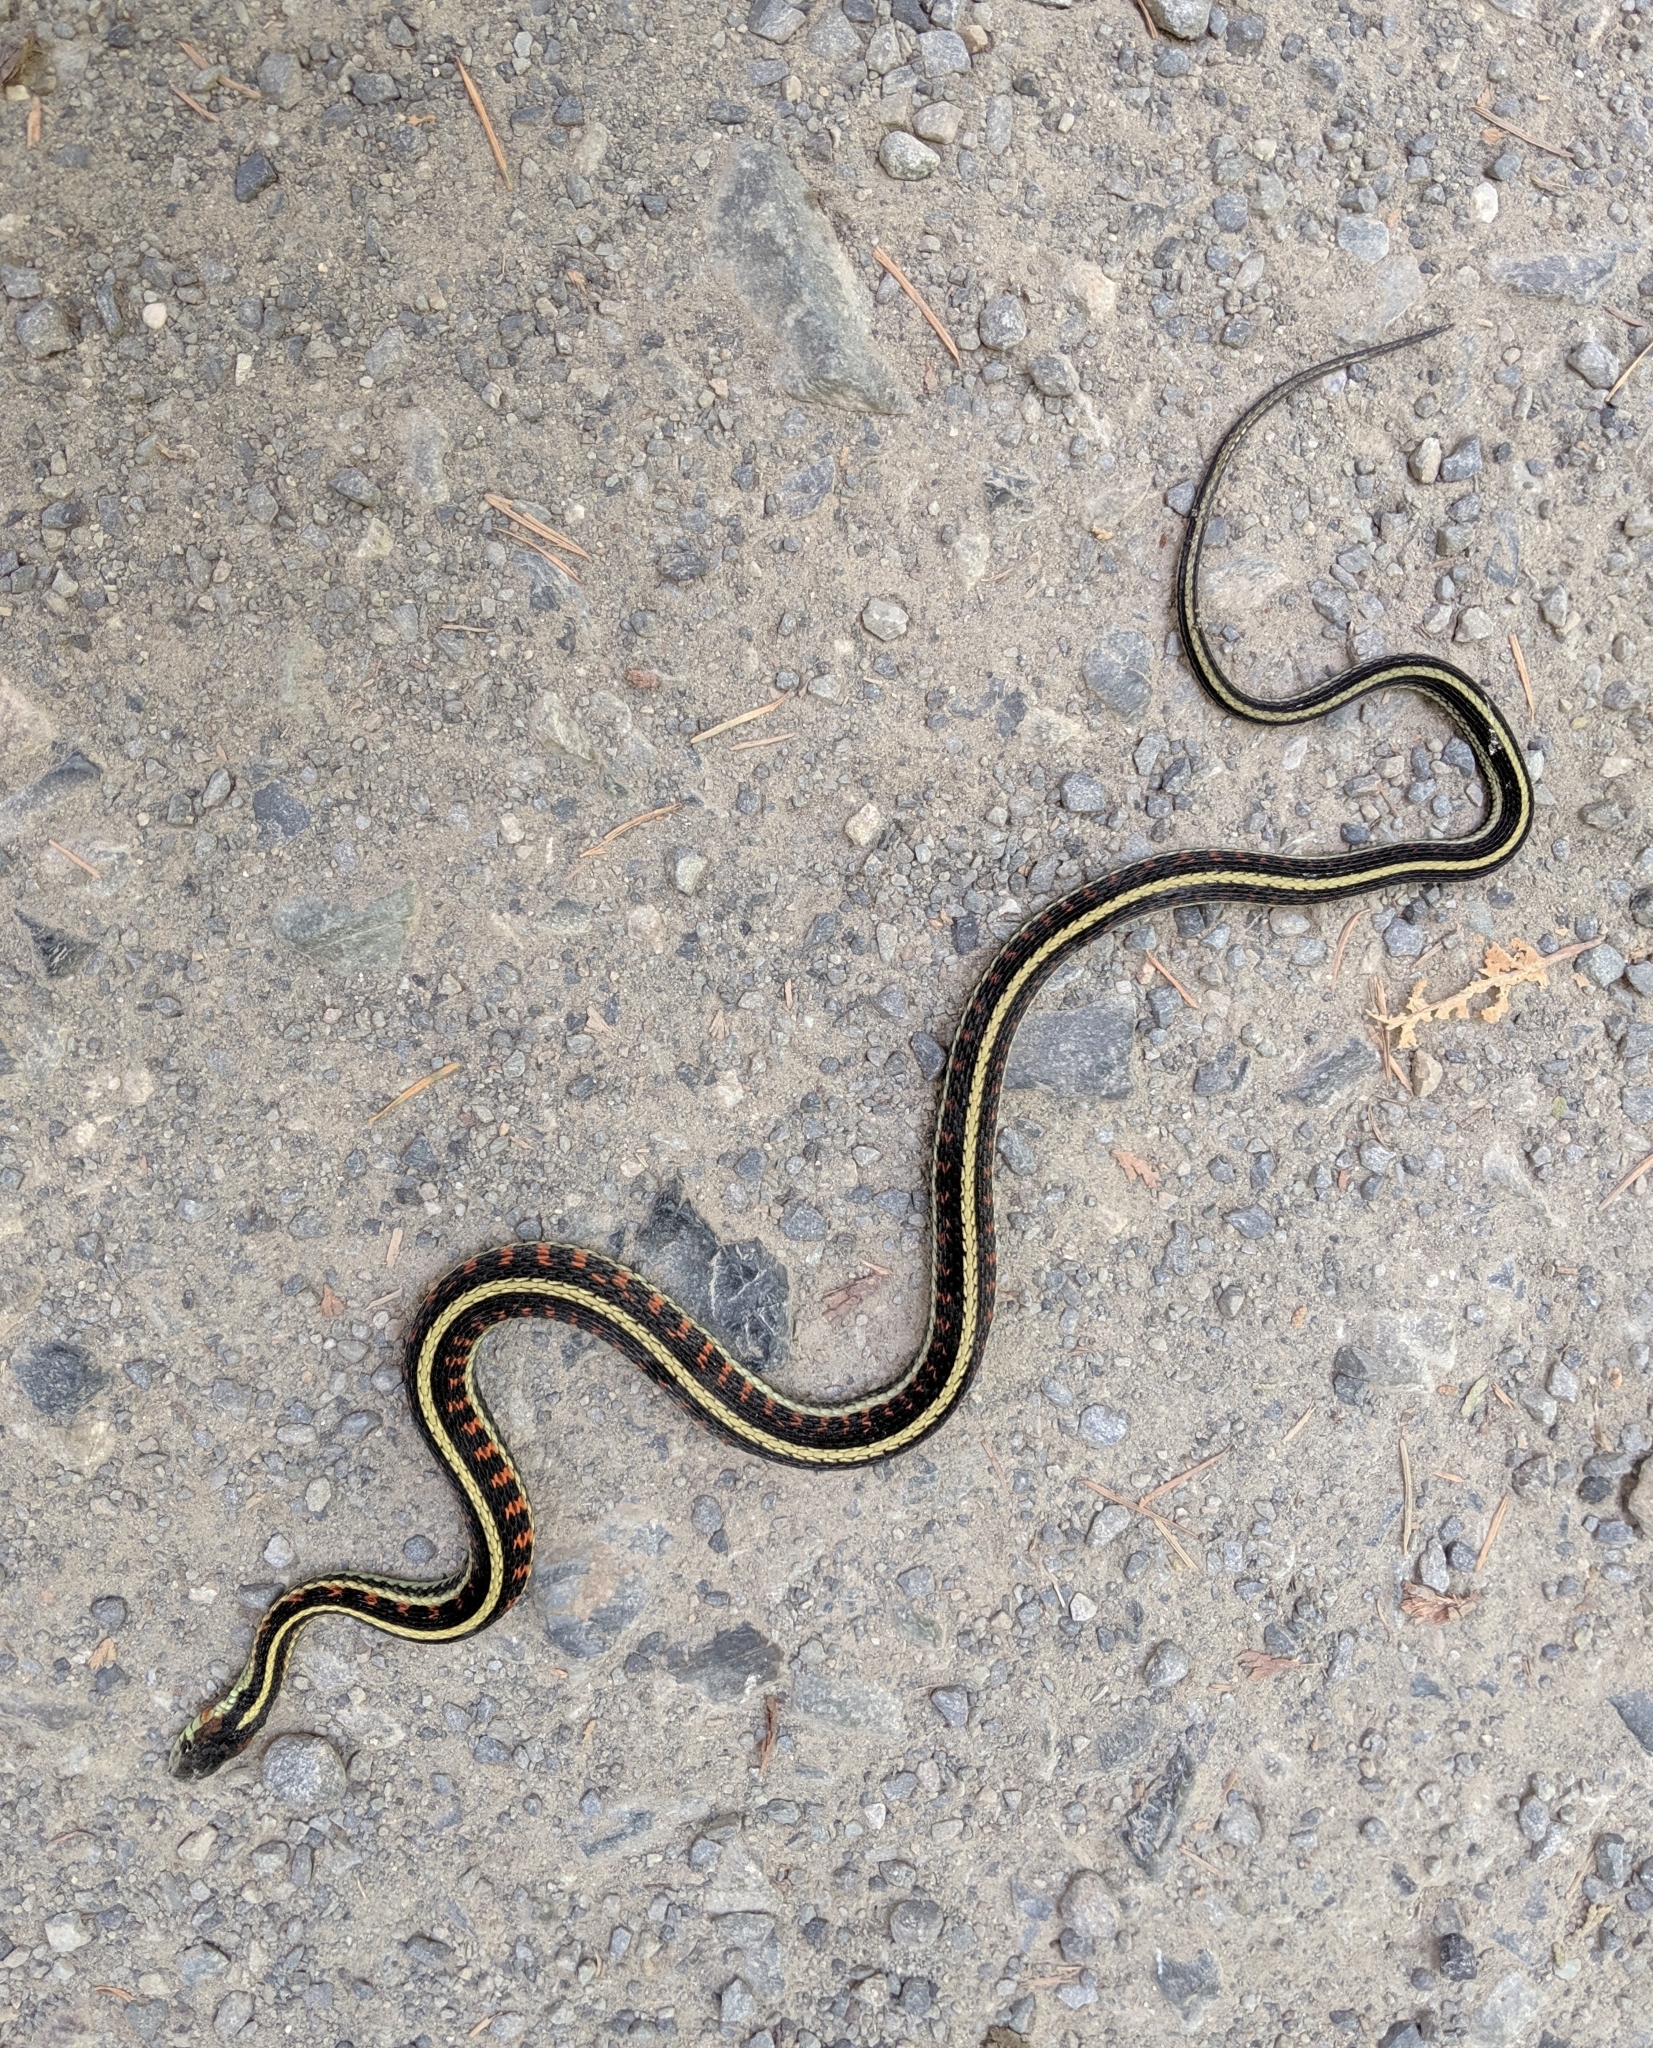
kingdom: Animalia
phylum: Chordata
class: Squamata
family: Colubridae
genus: Thamnophis
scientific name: Thamnophis sirtalis
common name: Common garter snake
